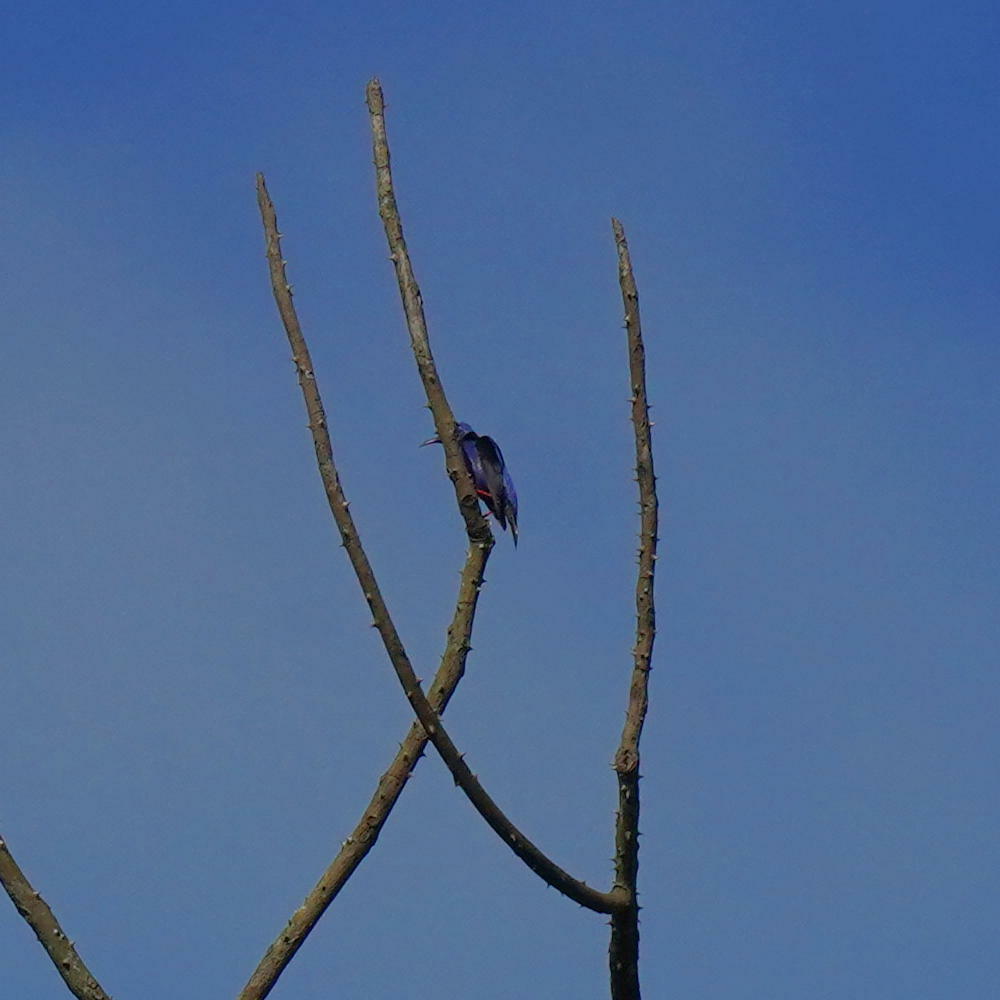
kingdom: Animalia
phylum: Chordata
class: Aves
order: Passeriformes
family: Thraupidae
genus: Cyanerpes
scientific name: Cyanerpes cyaneus
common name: Red-legged honeycreeper
